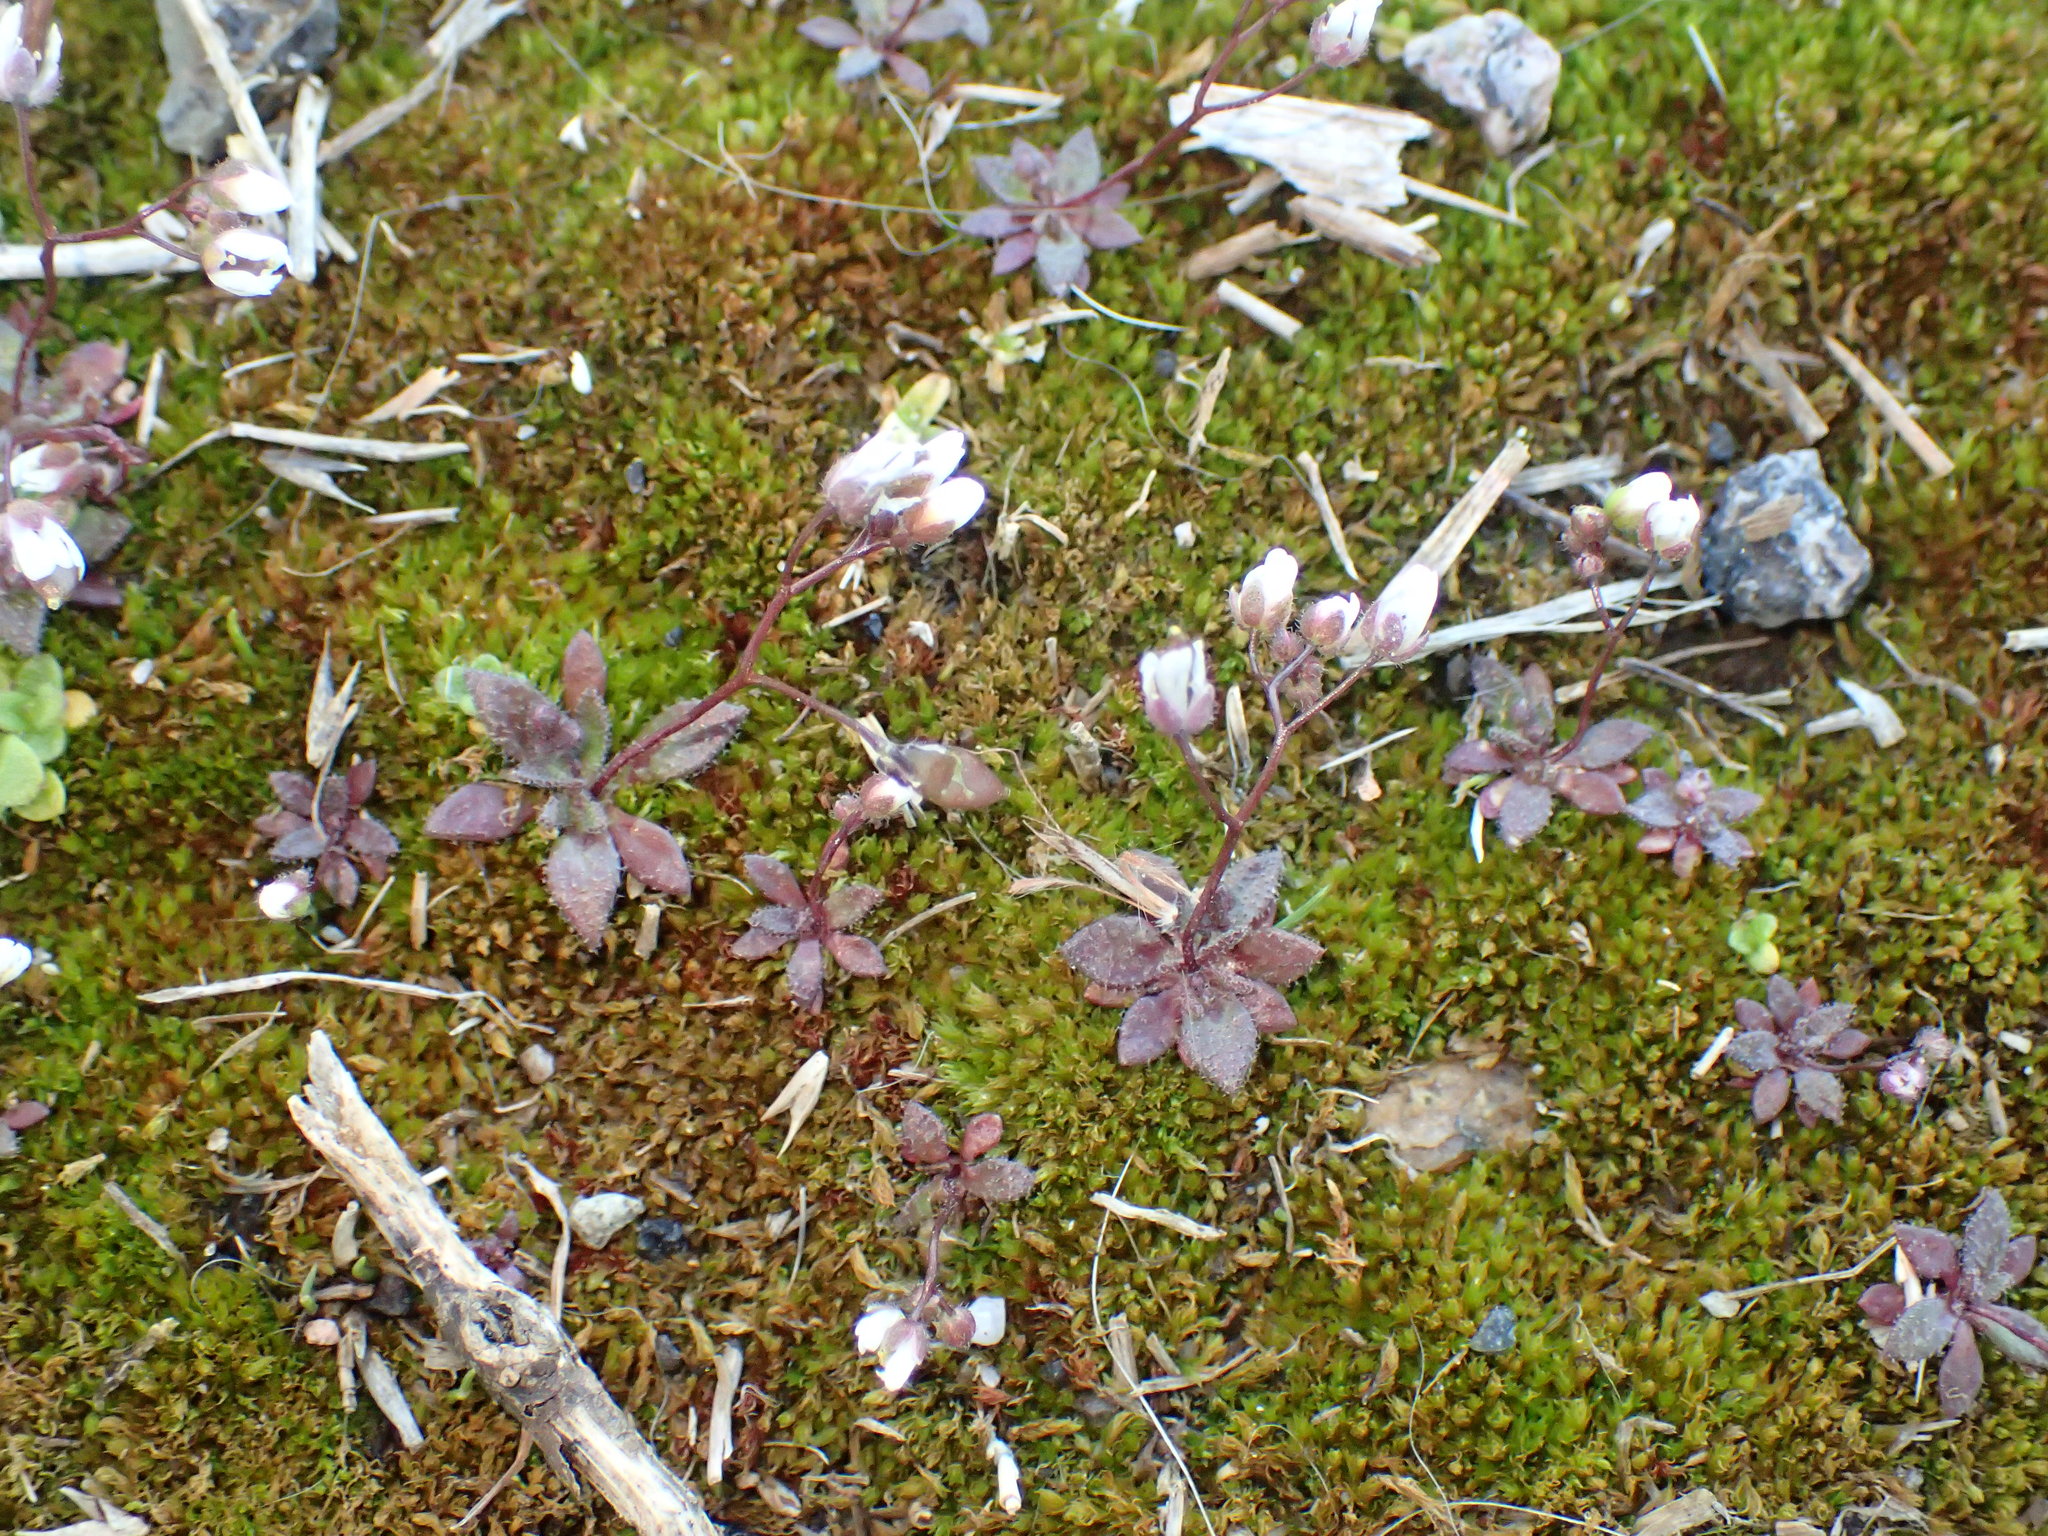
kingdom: Plantae
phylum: Tracheophyta
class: Magnoliopsida
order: Brassicales
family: Brassicaceae
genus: Draba
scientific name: Draba verna
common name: Spring draba
